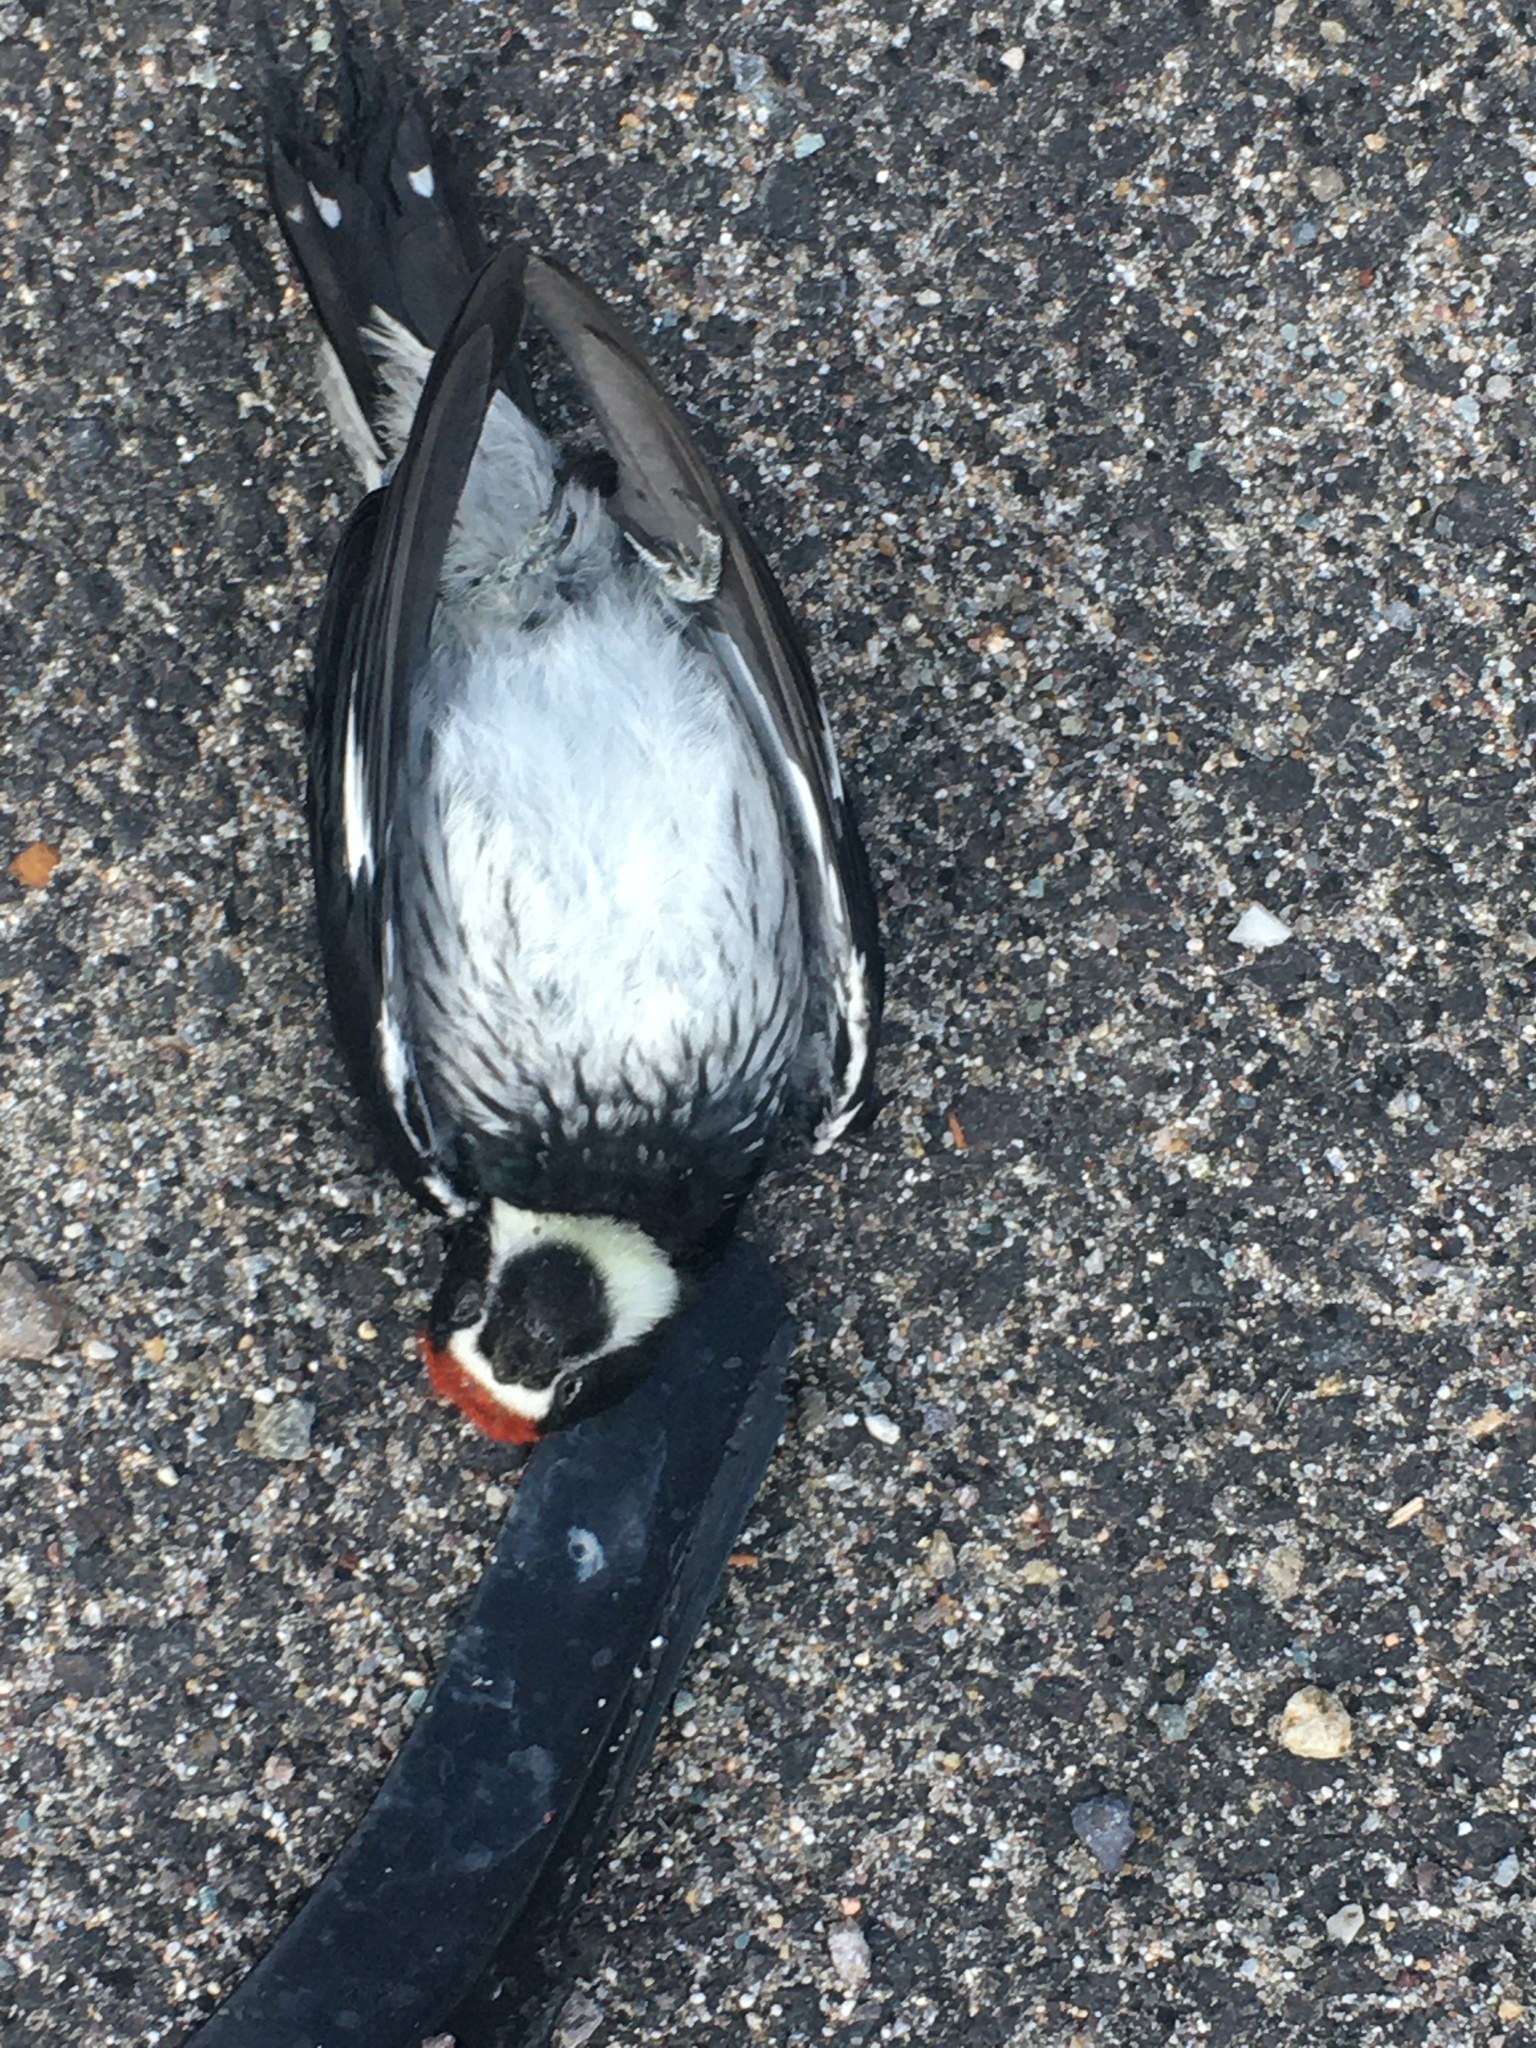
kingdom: Animalia
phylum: Chordata
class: Aves
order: Piciformes
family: Picidae
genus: Melanerpes
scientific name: Melanerpes formicivorus
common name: Acorn woodpecker
